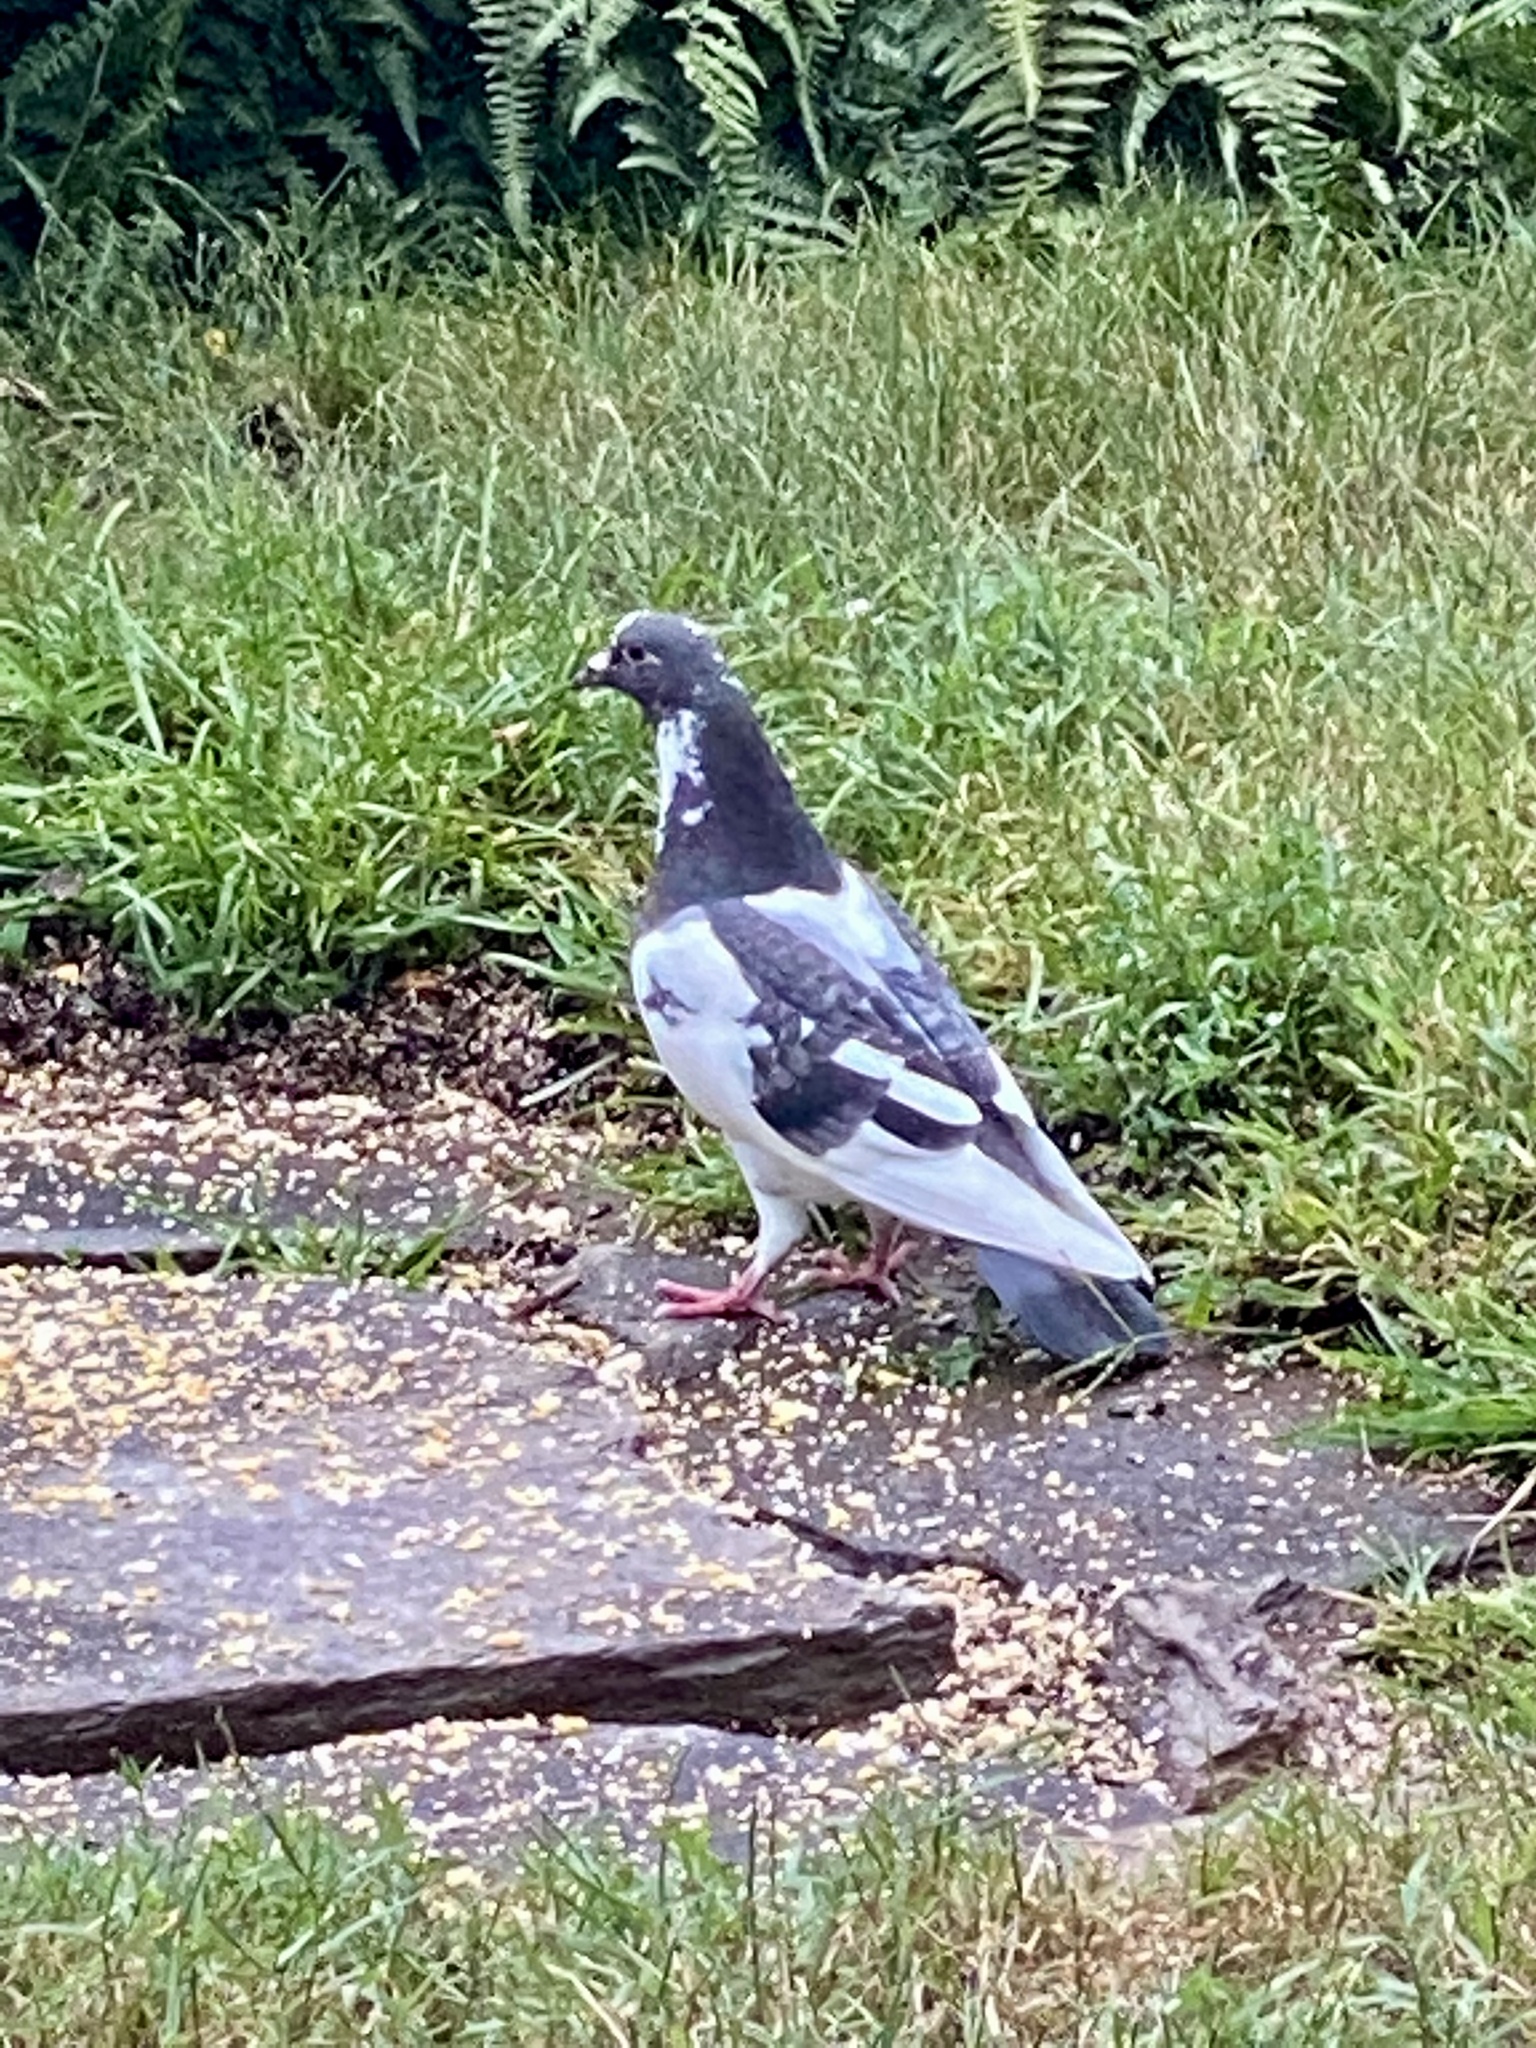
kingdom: Animalia
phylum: Chordata
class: Aves
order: Columbiformes
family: Columbidae
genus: Columba
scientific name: Columba livia
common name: Rock pigeon
